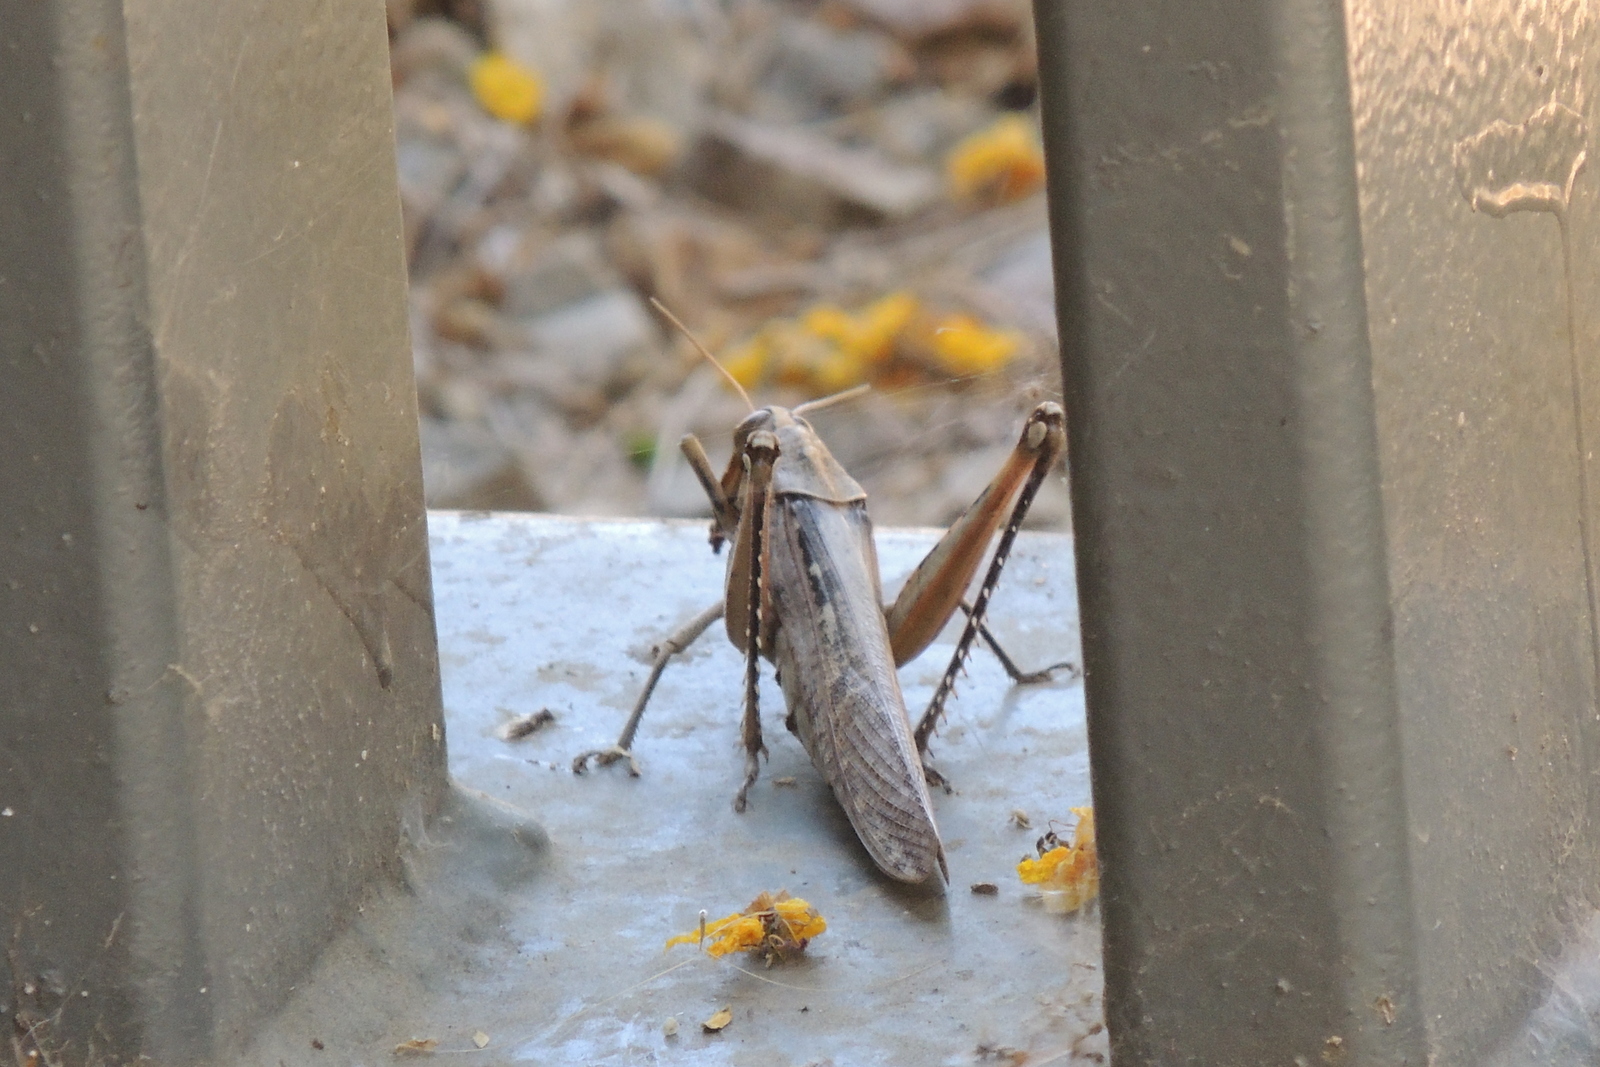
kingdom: Animalia
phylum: Arthropoda
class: Insecta
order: Orthoptera
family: Acrididae
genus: Schistocerca
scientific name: Schistocerca nitens
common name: Vagrant grasshopper
